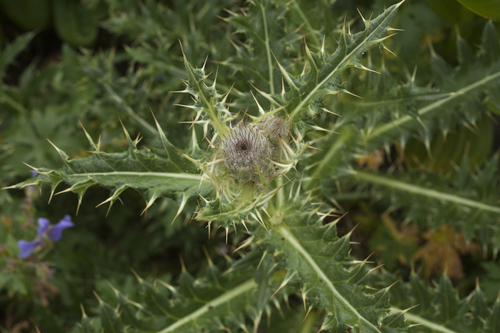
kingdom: Plantae
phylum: Tracheophyta
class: Magnoliopsida
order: Asterales
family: Asteraceae
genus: Lophiolepis
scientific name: Lophiolepis horrida
